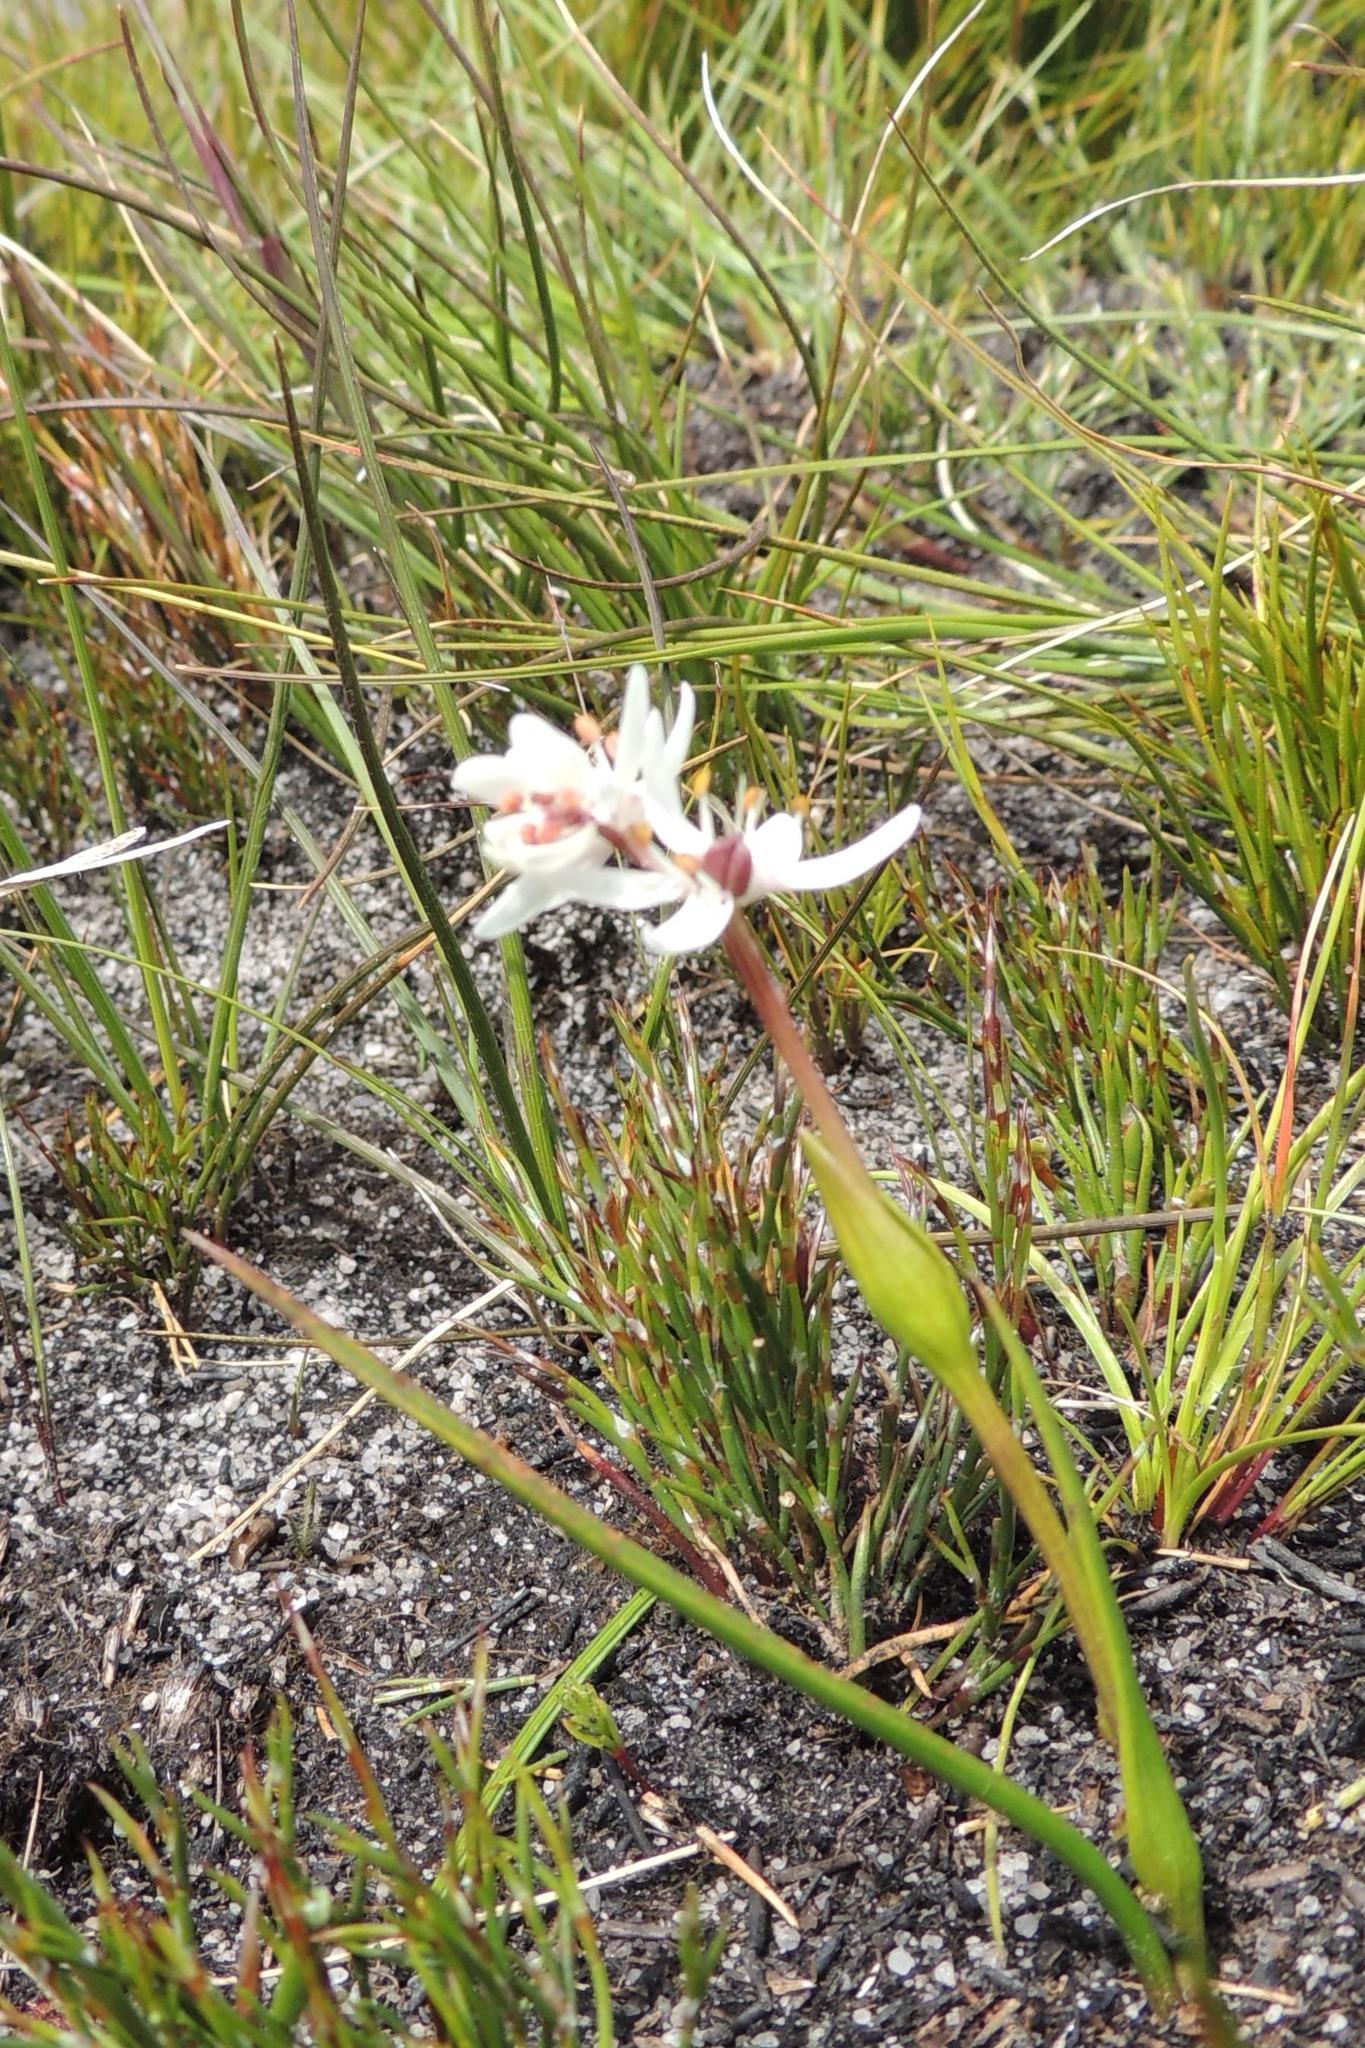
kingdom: Plantae
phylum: Tracheophyta
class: Liliopsida
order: Liliales
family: Colchicaceae
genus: Wurmbea
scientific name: Wurmbea punctata
